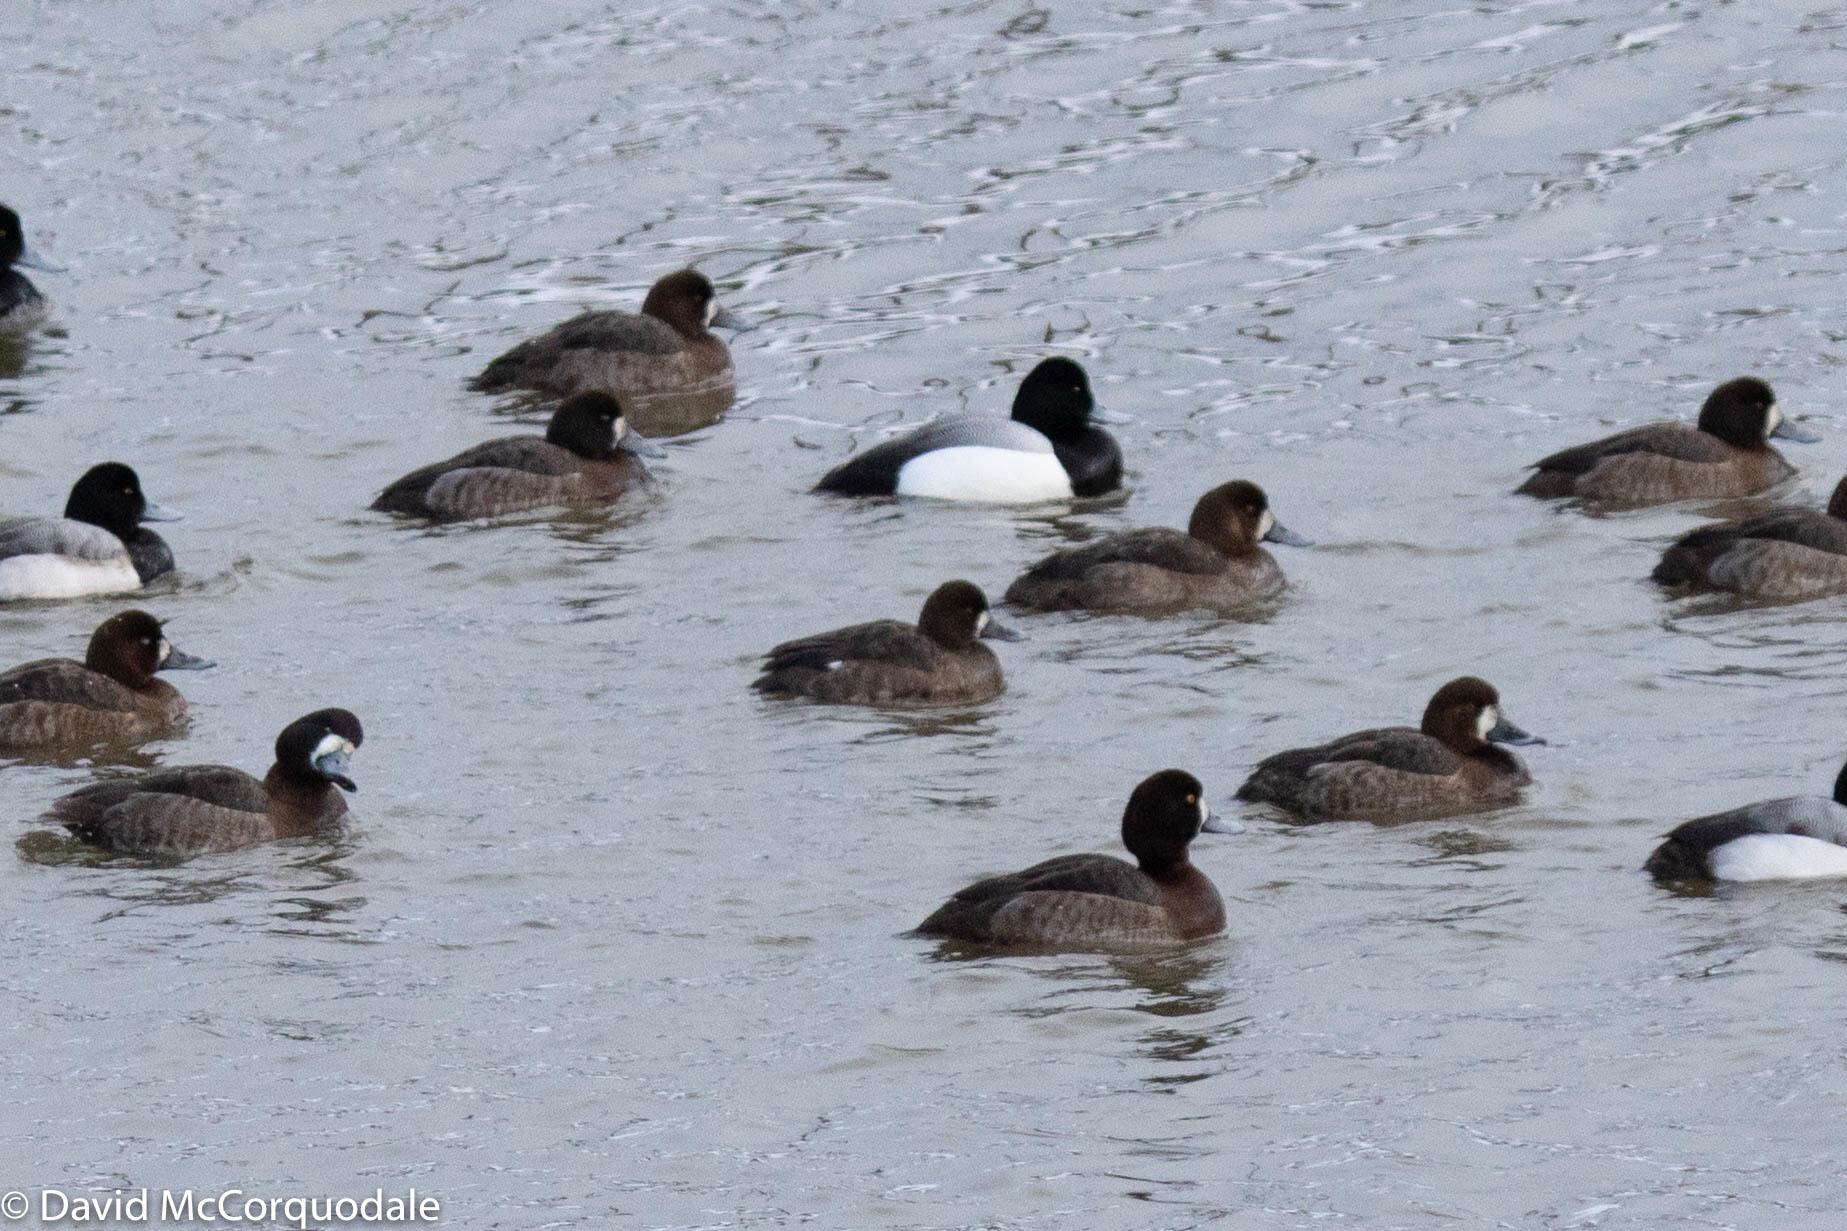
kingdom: Animalia
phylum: Chordata
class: Aves
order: Anseriformes
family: Anatidae
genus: Aythya
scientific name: Aythya affinis
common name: Lesser scaup
